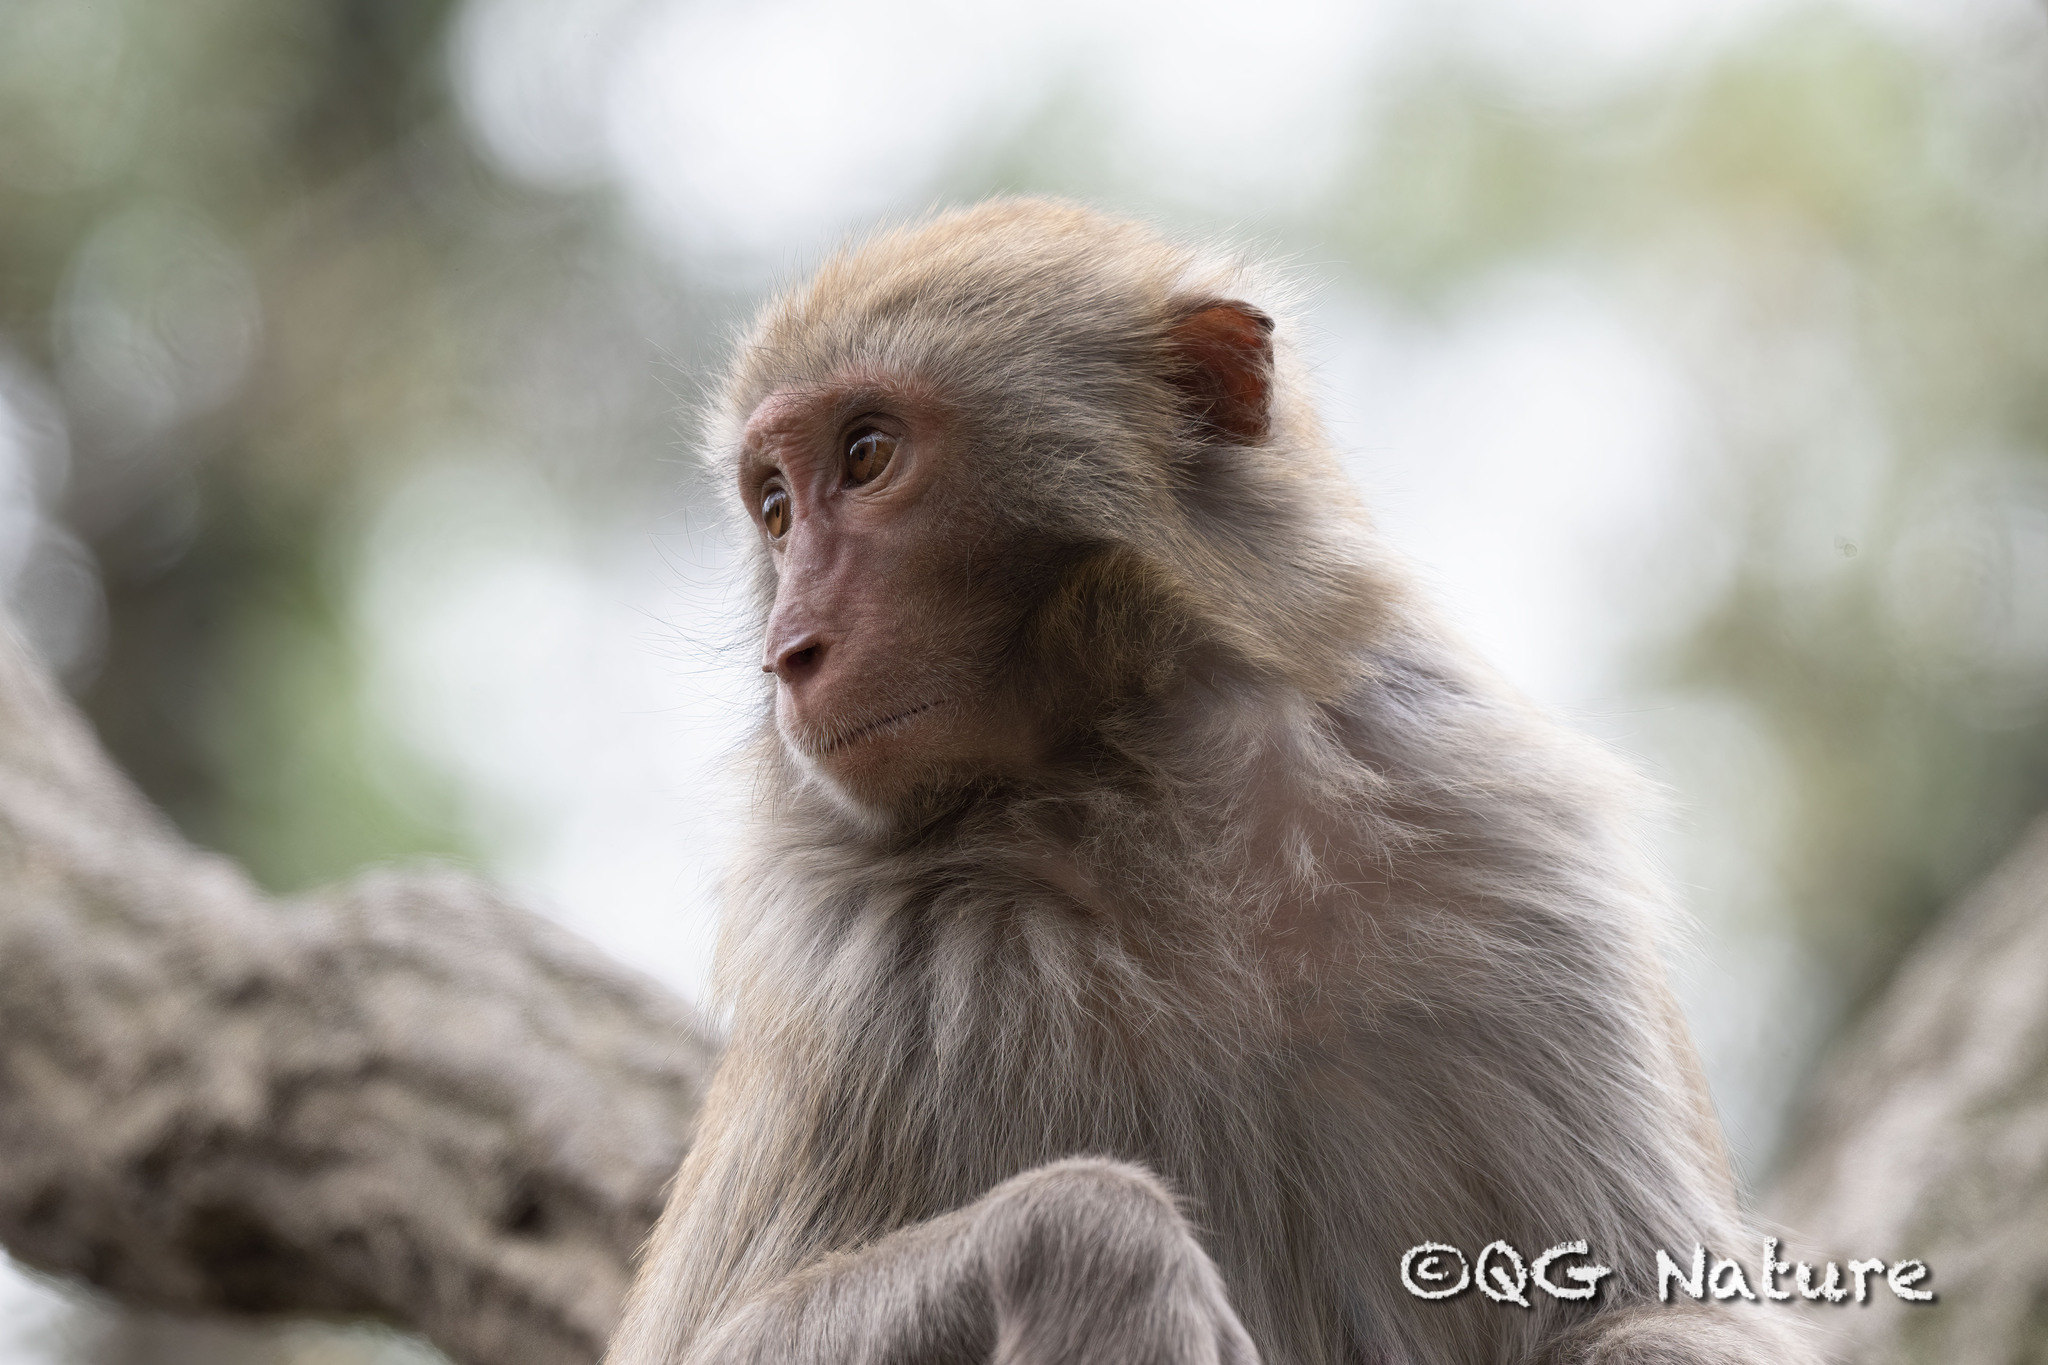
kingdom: Animalia
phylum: Chordata
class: Mammalia
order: Primates
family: Cercopithecidae
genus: Macaca
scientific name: Macaca mulatta
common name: Rhesus monkey
